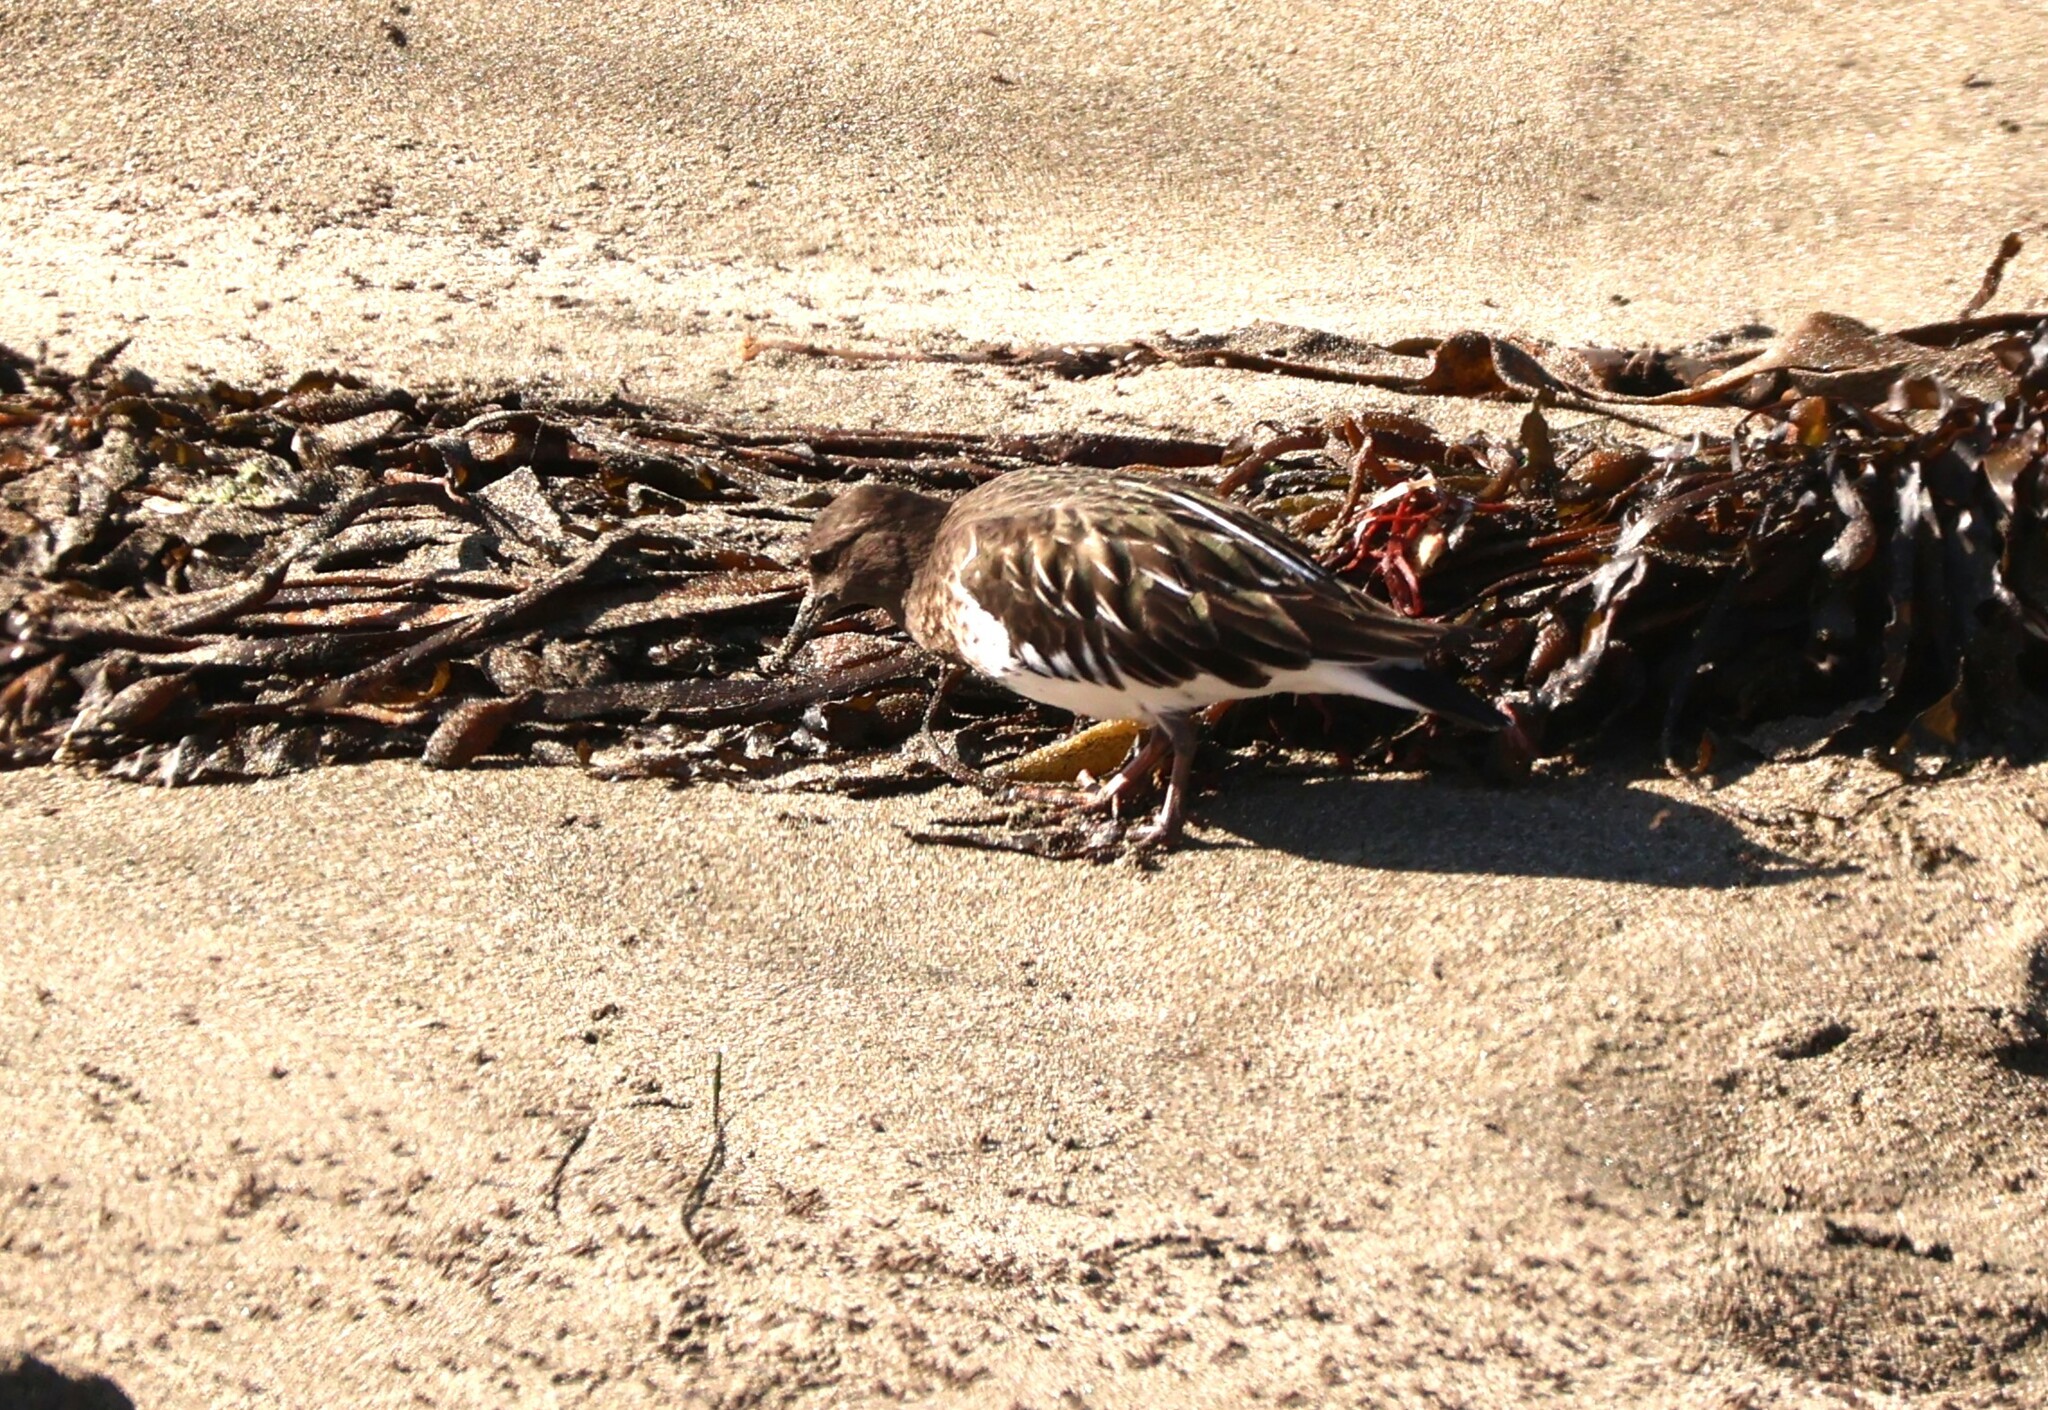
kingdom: Animalia
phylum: Chordata
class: Aves
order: Charadriiformes
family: Scolopacidae
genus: Arenaria
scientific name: Arenaria melanocephala
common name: Black turnstone
